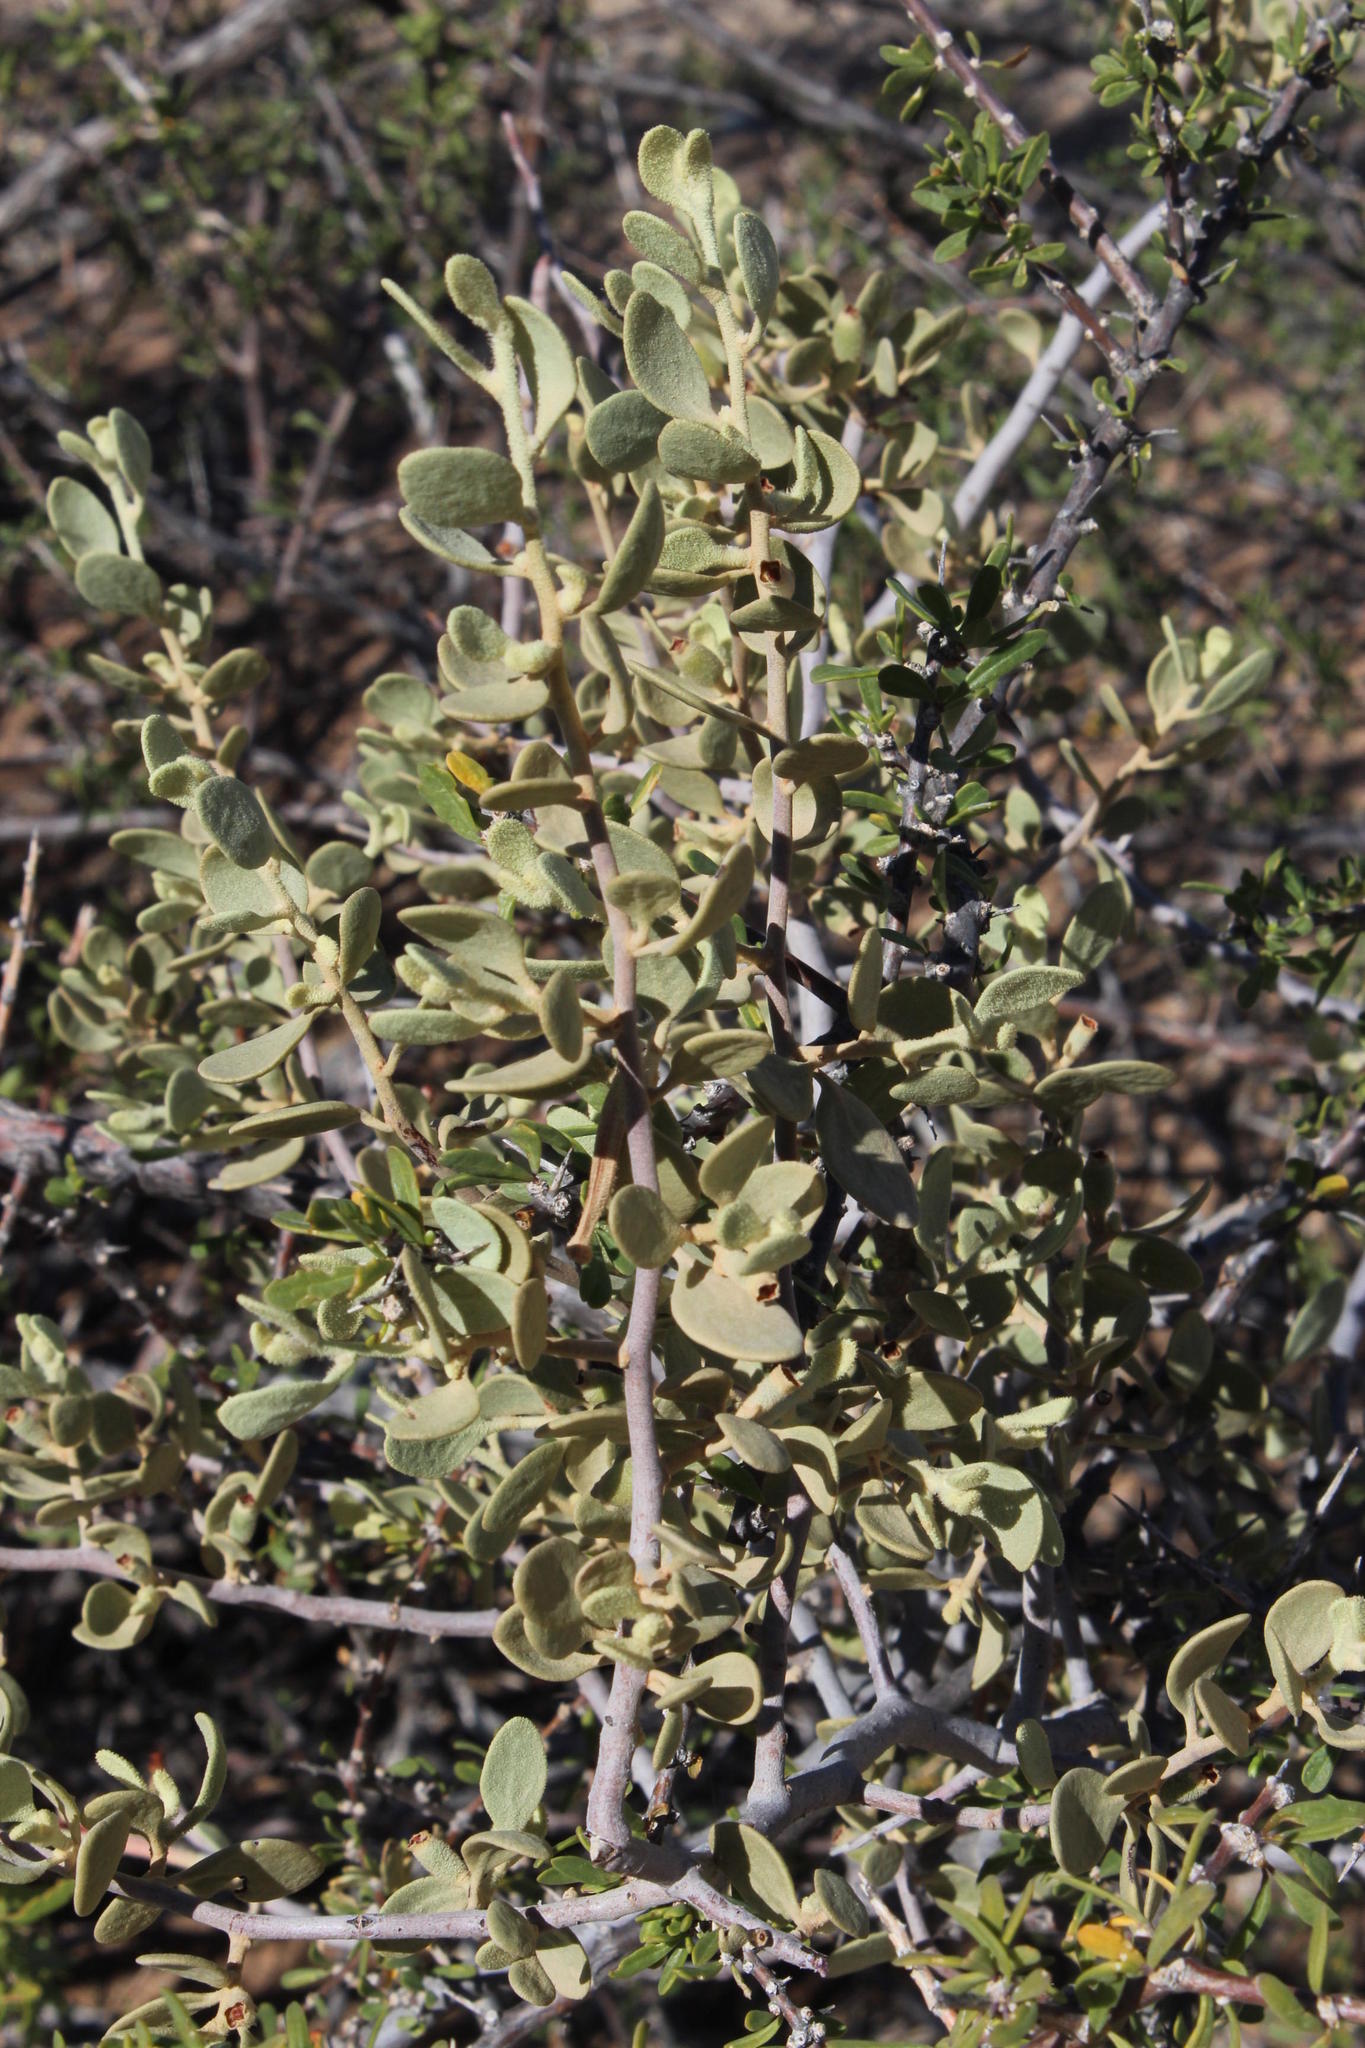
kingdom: Plantae
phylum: Tracheophyta
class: Magnoliopsida
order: Santalales
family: Loranthaceae
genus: Septulina
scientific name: Septulina ovalis
